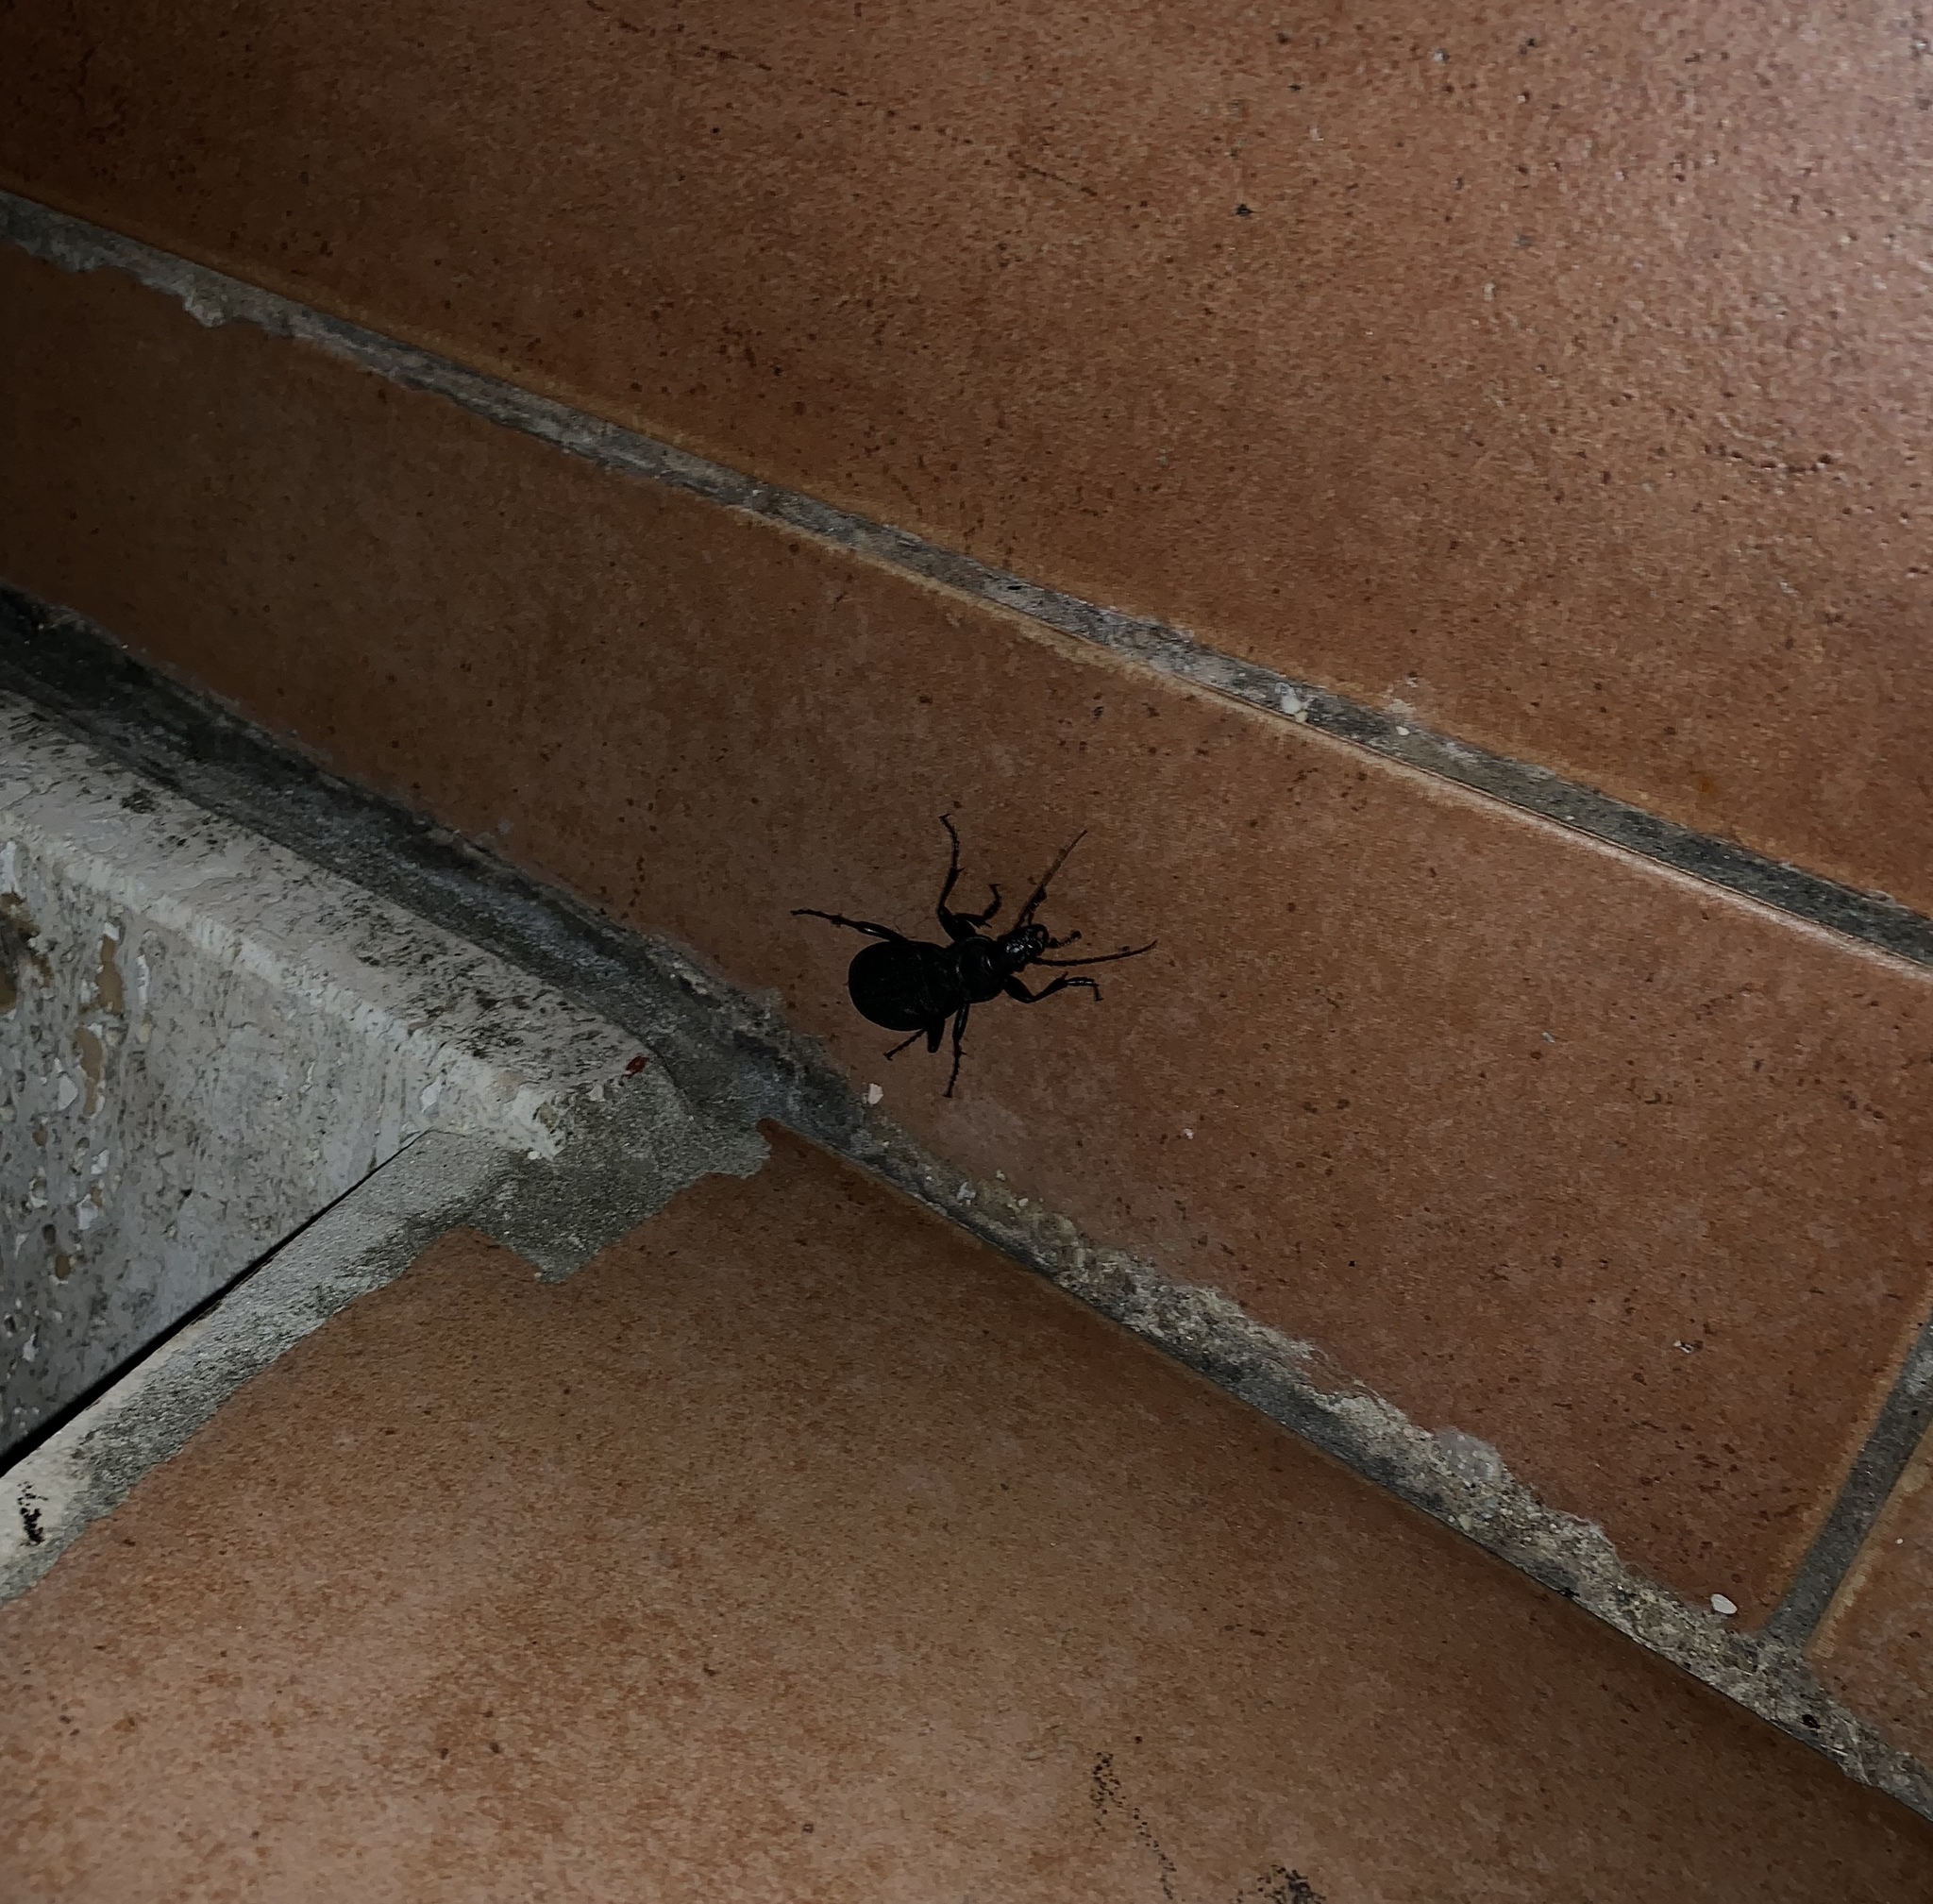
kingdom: Animalia
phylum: Arthropoda
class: Insecta
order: Coleoptera
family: Carabidae
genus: Carabus
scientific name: Carabus coriaceus
